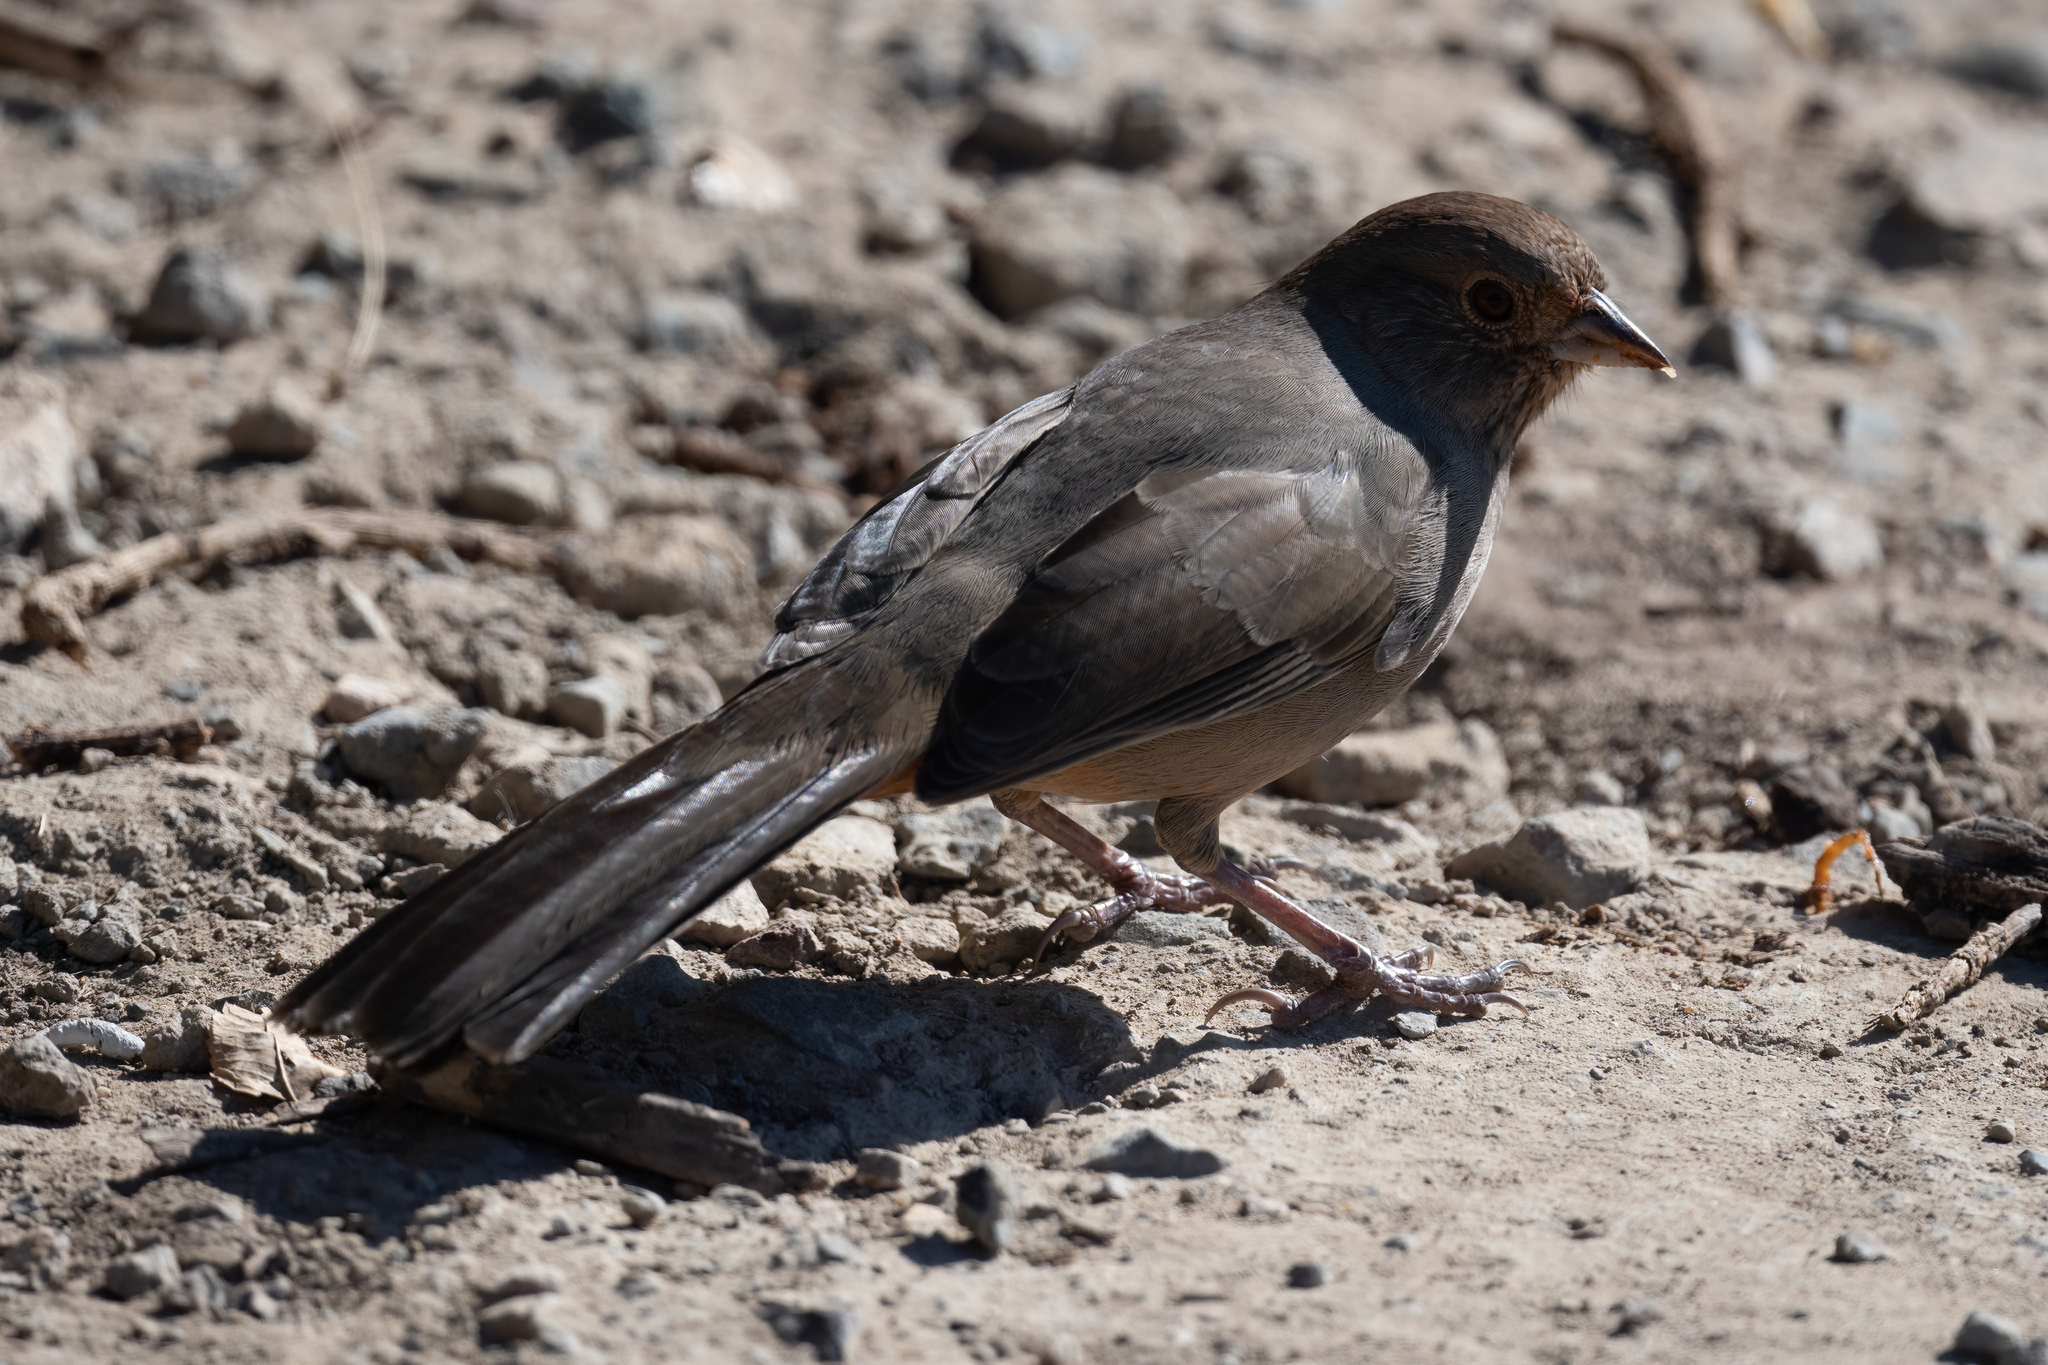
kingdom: Animalia
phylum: Chordata
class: Aves
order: Passeriformes
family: Passerellidae
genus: Melozone
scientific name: Melozone crissalis
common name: California towhee
